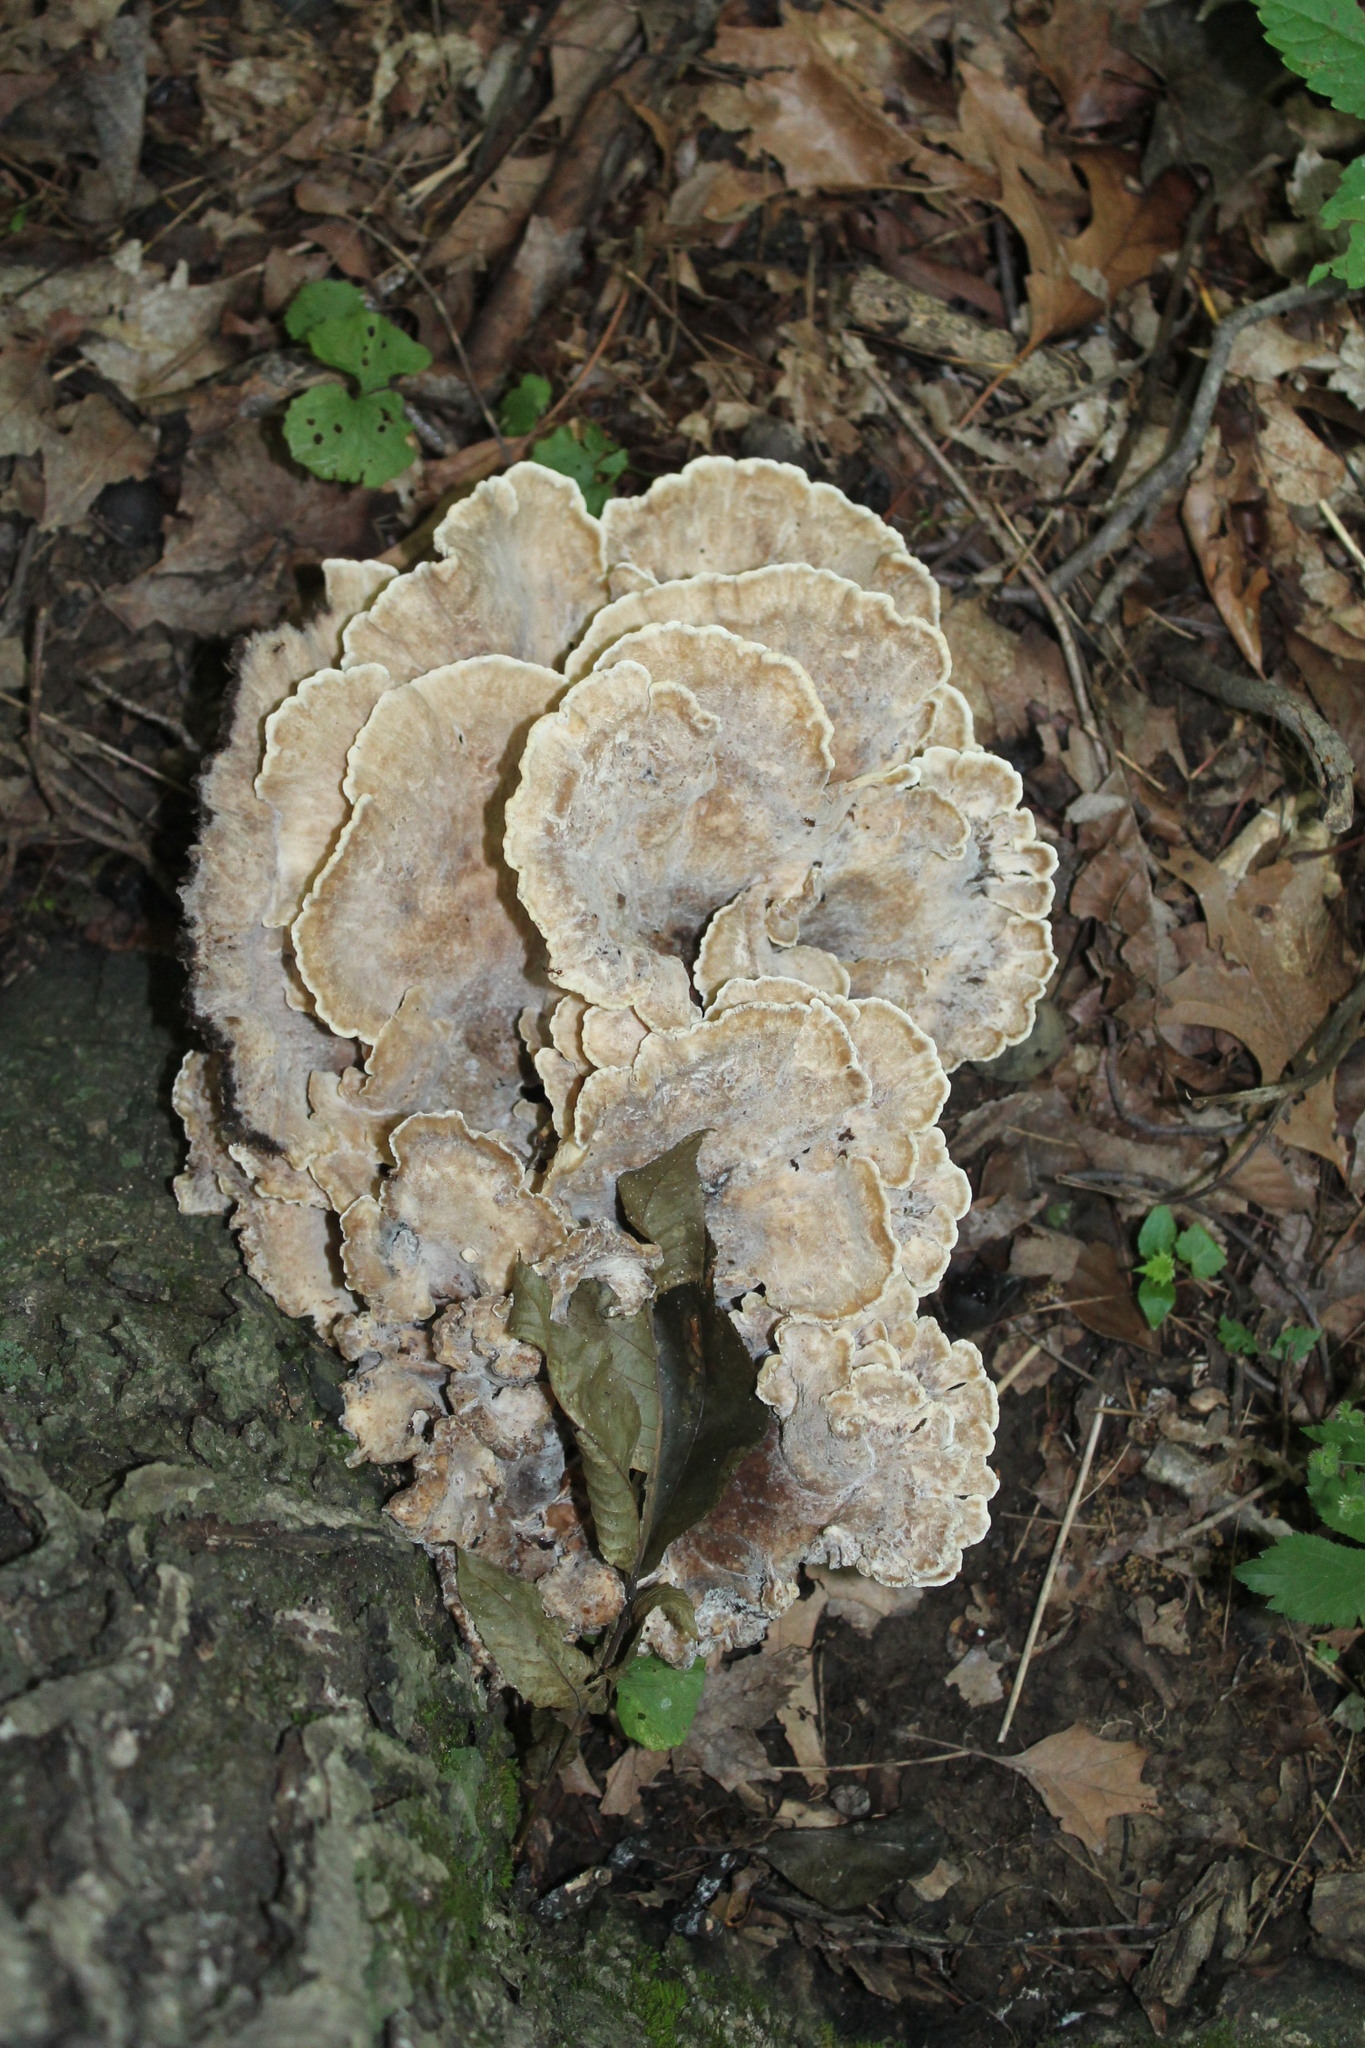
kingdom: Fungi
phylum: Basidiomycota
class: Agaricomycetes
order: Polyporales
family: Meripilaceae
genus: Meripilus
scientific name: Meripilus sumstinei
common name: Black-staining polypore
